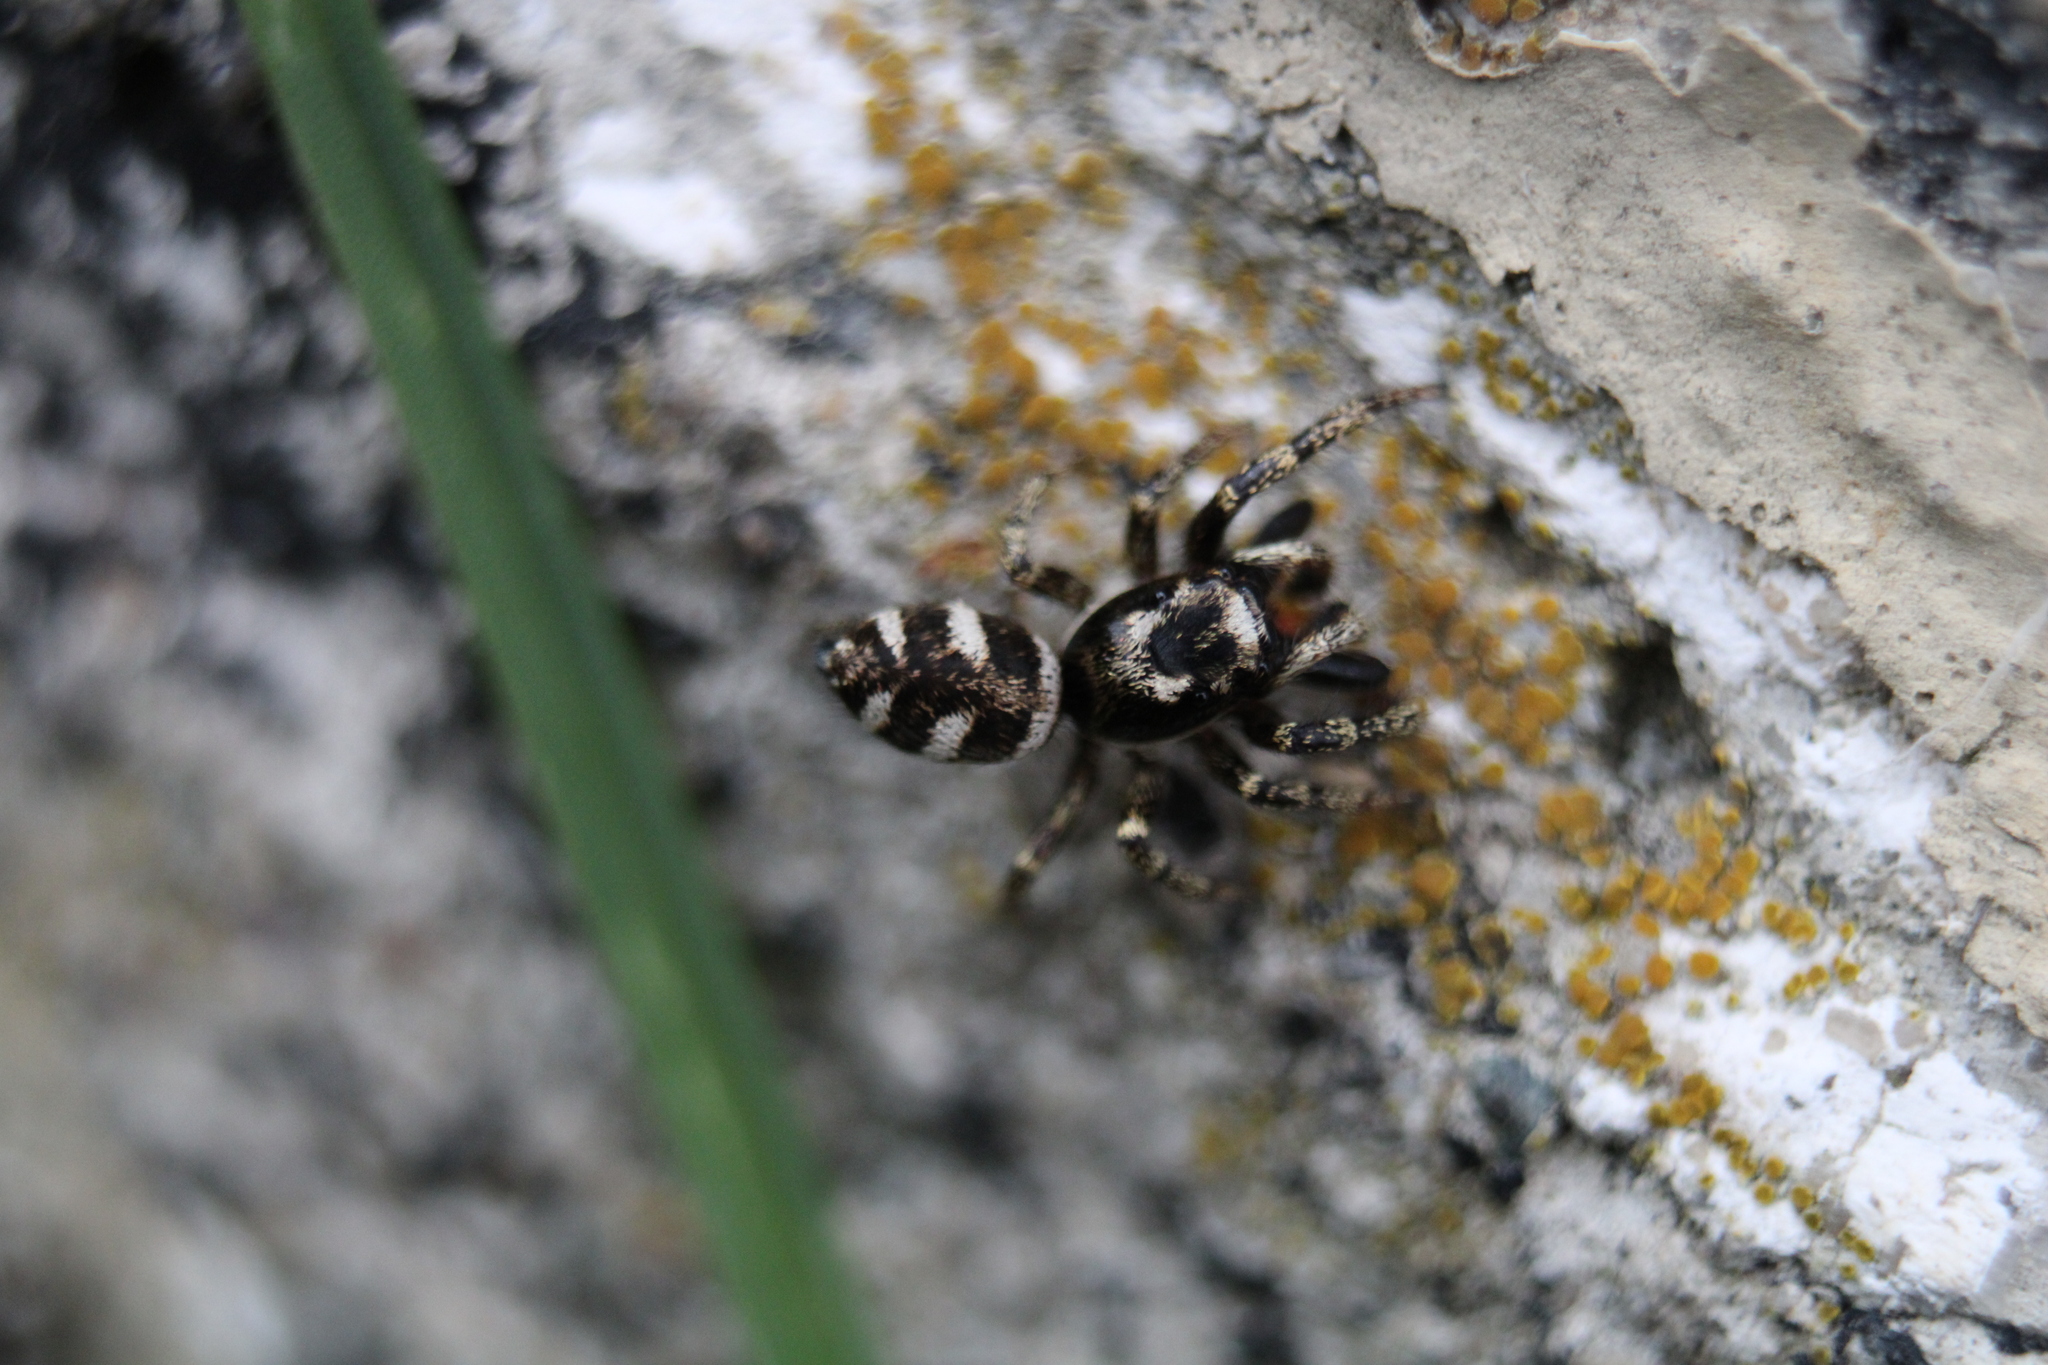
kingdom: Animalia
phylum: Arthropoda
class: Arachnida
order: Araneae
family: Salticidae
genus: Salticus
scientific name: Salticus scenicus
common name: Zebra jumper
